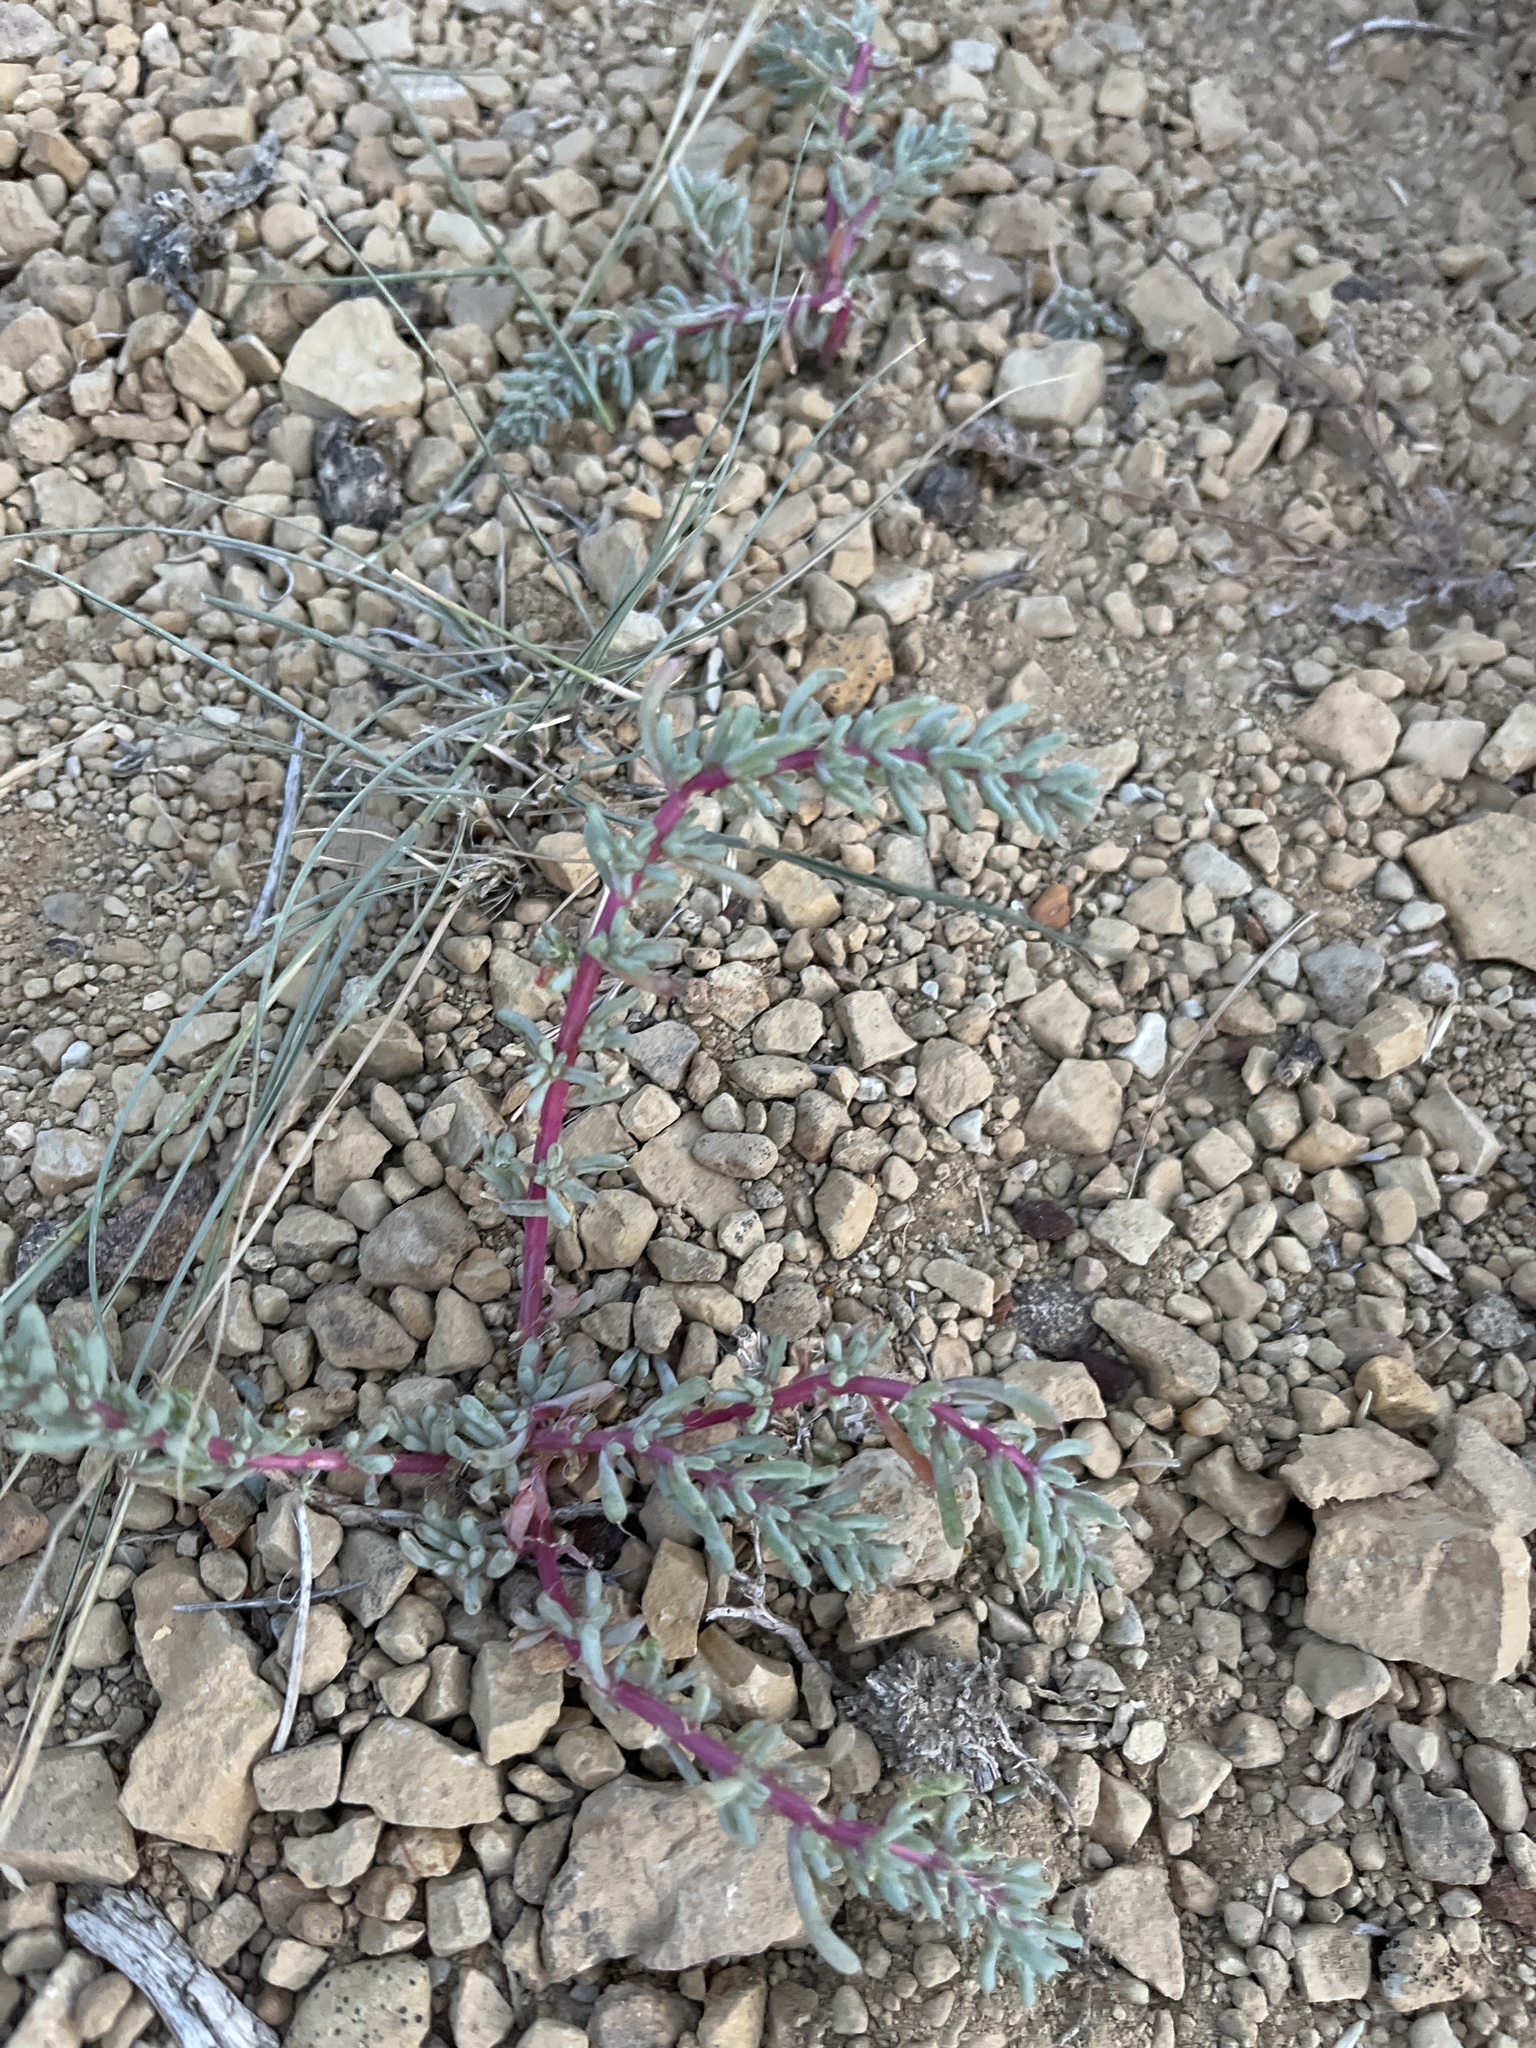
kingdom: Plantae
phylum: Tracheophyta
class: Magnoliopsida
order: Caryophyllales
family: Amaranthaceae
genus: Halogeton
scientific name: Halogeton glomeratus
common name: Saltlover
